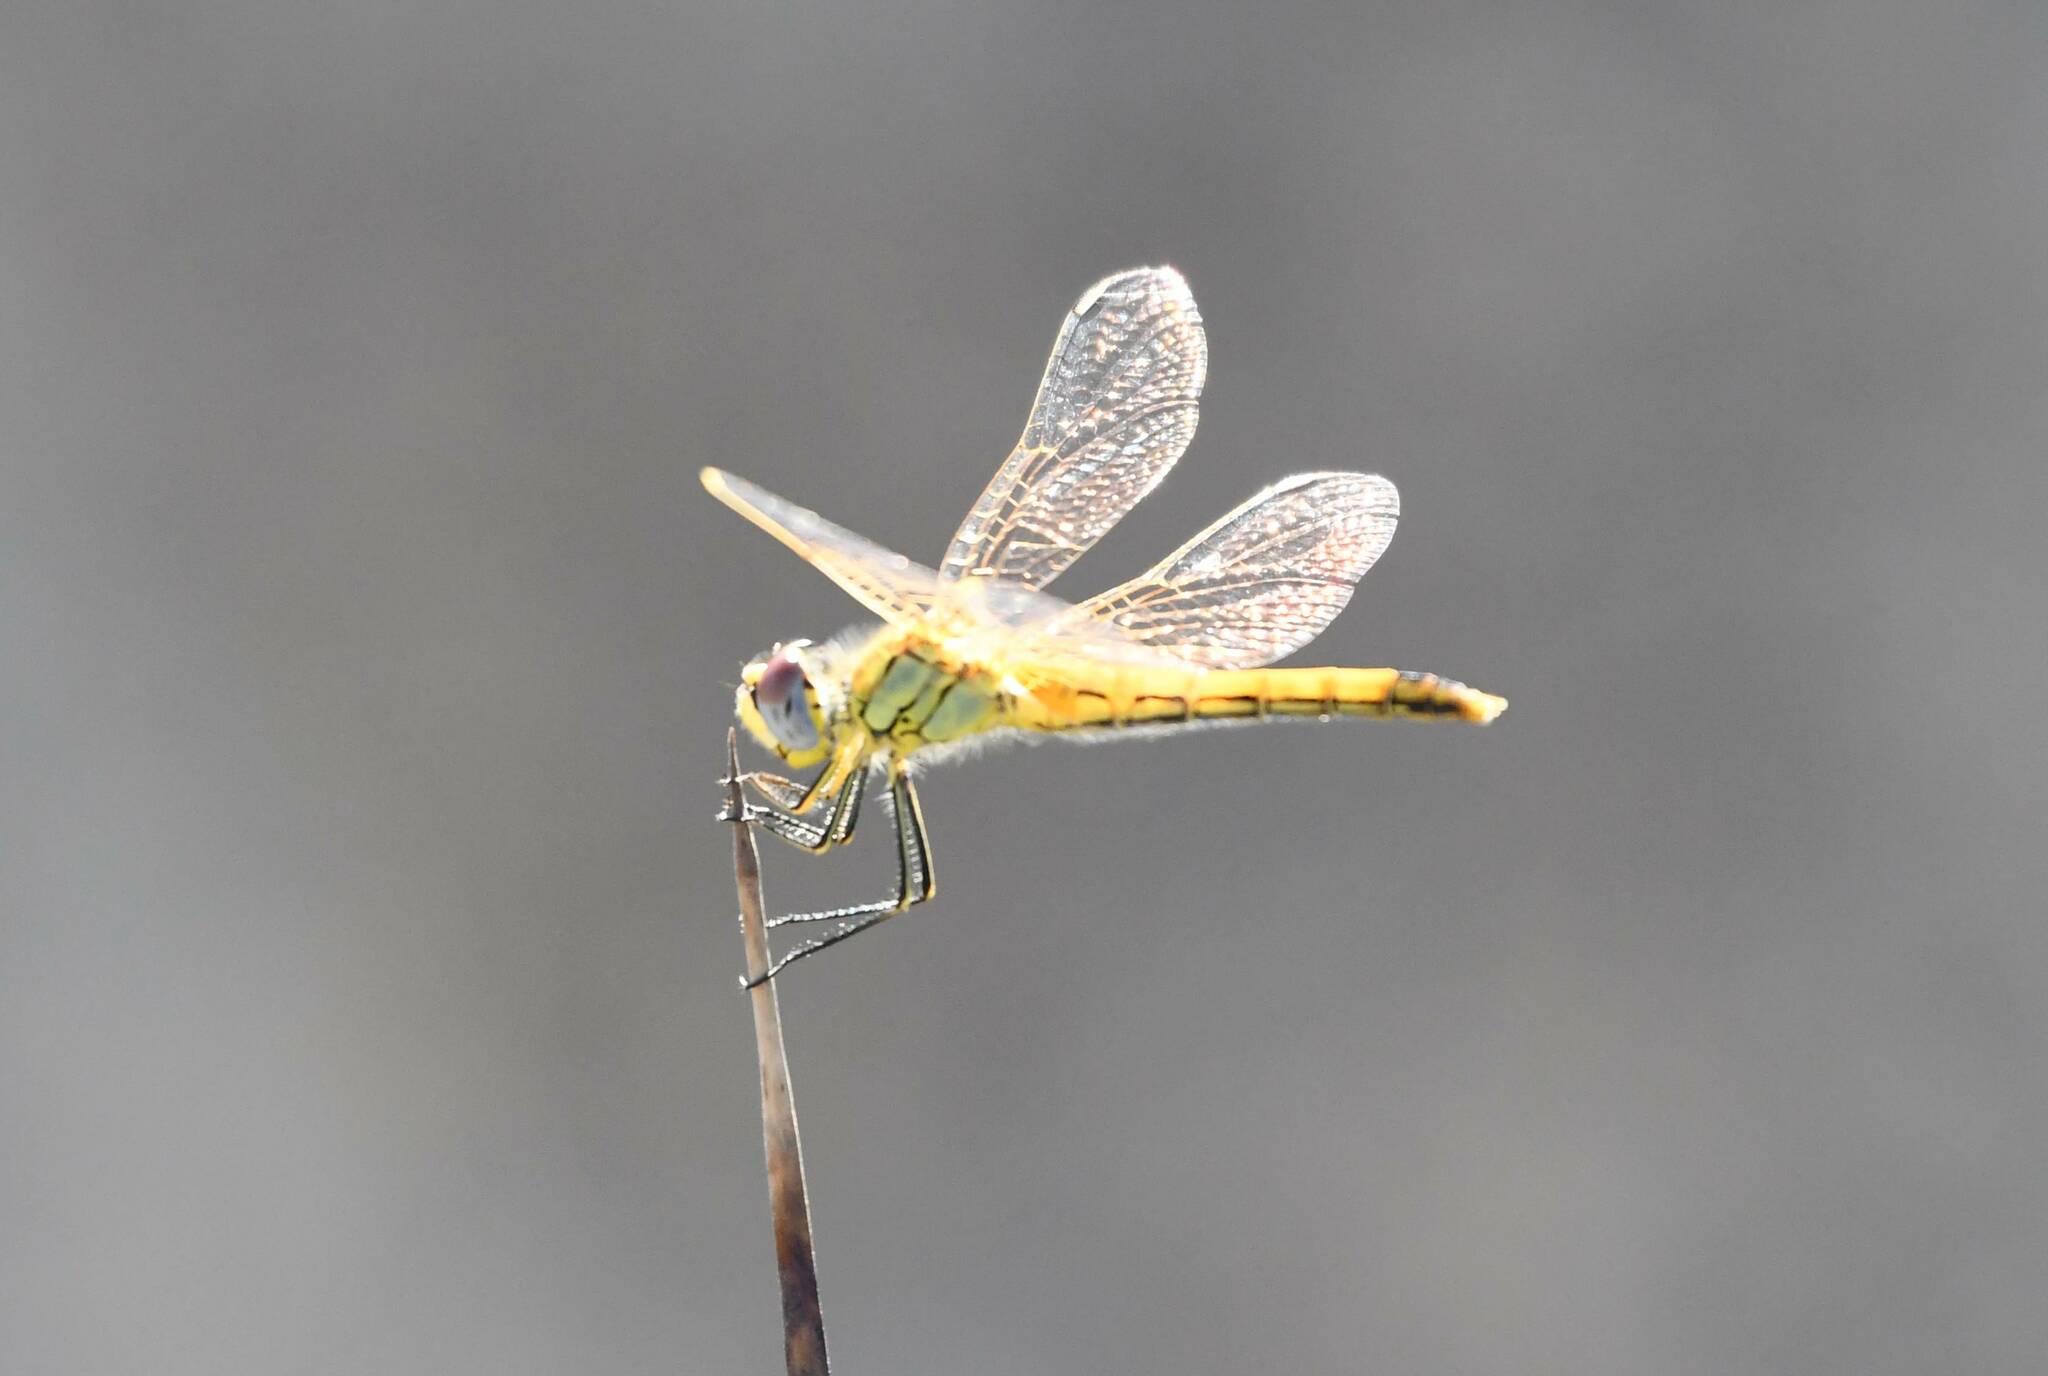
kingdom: Animalia
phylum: Arthropoda
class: Insecta
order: Odonata
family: Libellulidae
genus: Sympetrum
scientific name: Sympetrum fonscolombii
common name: Red-veined darter
